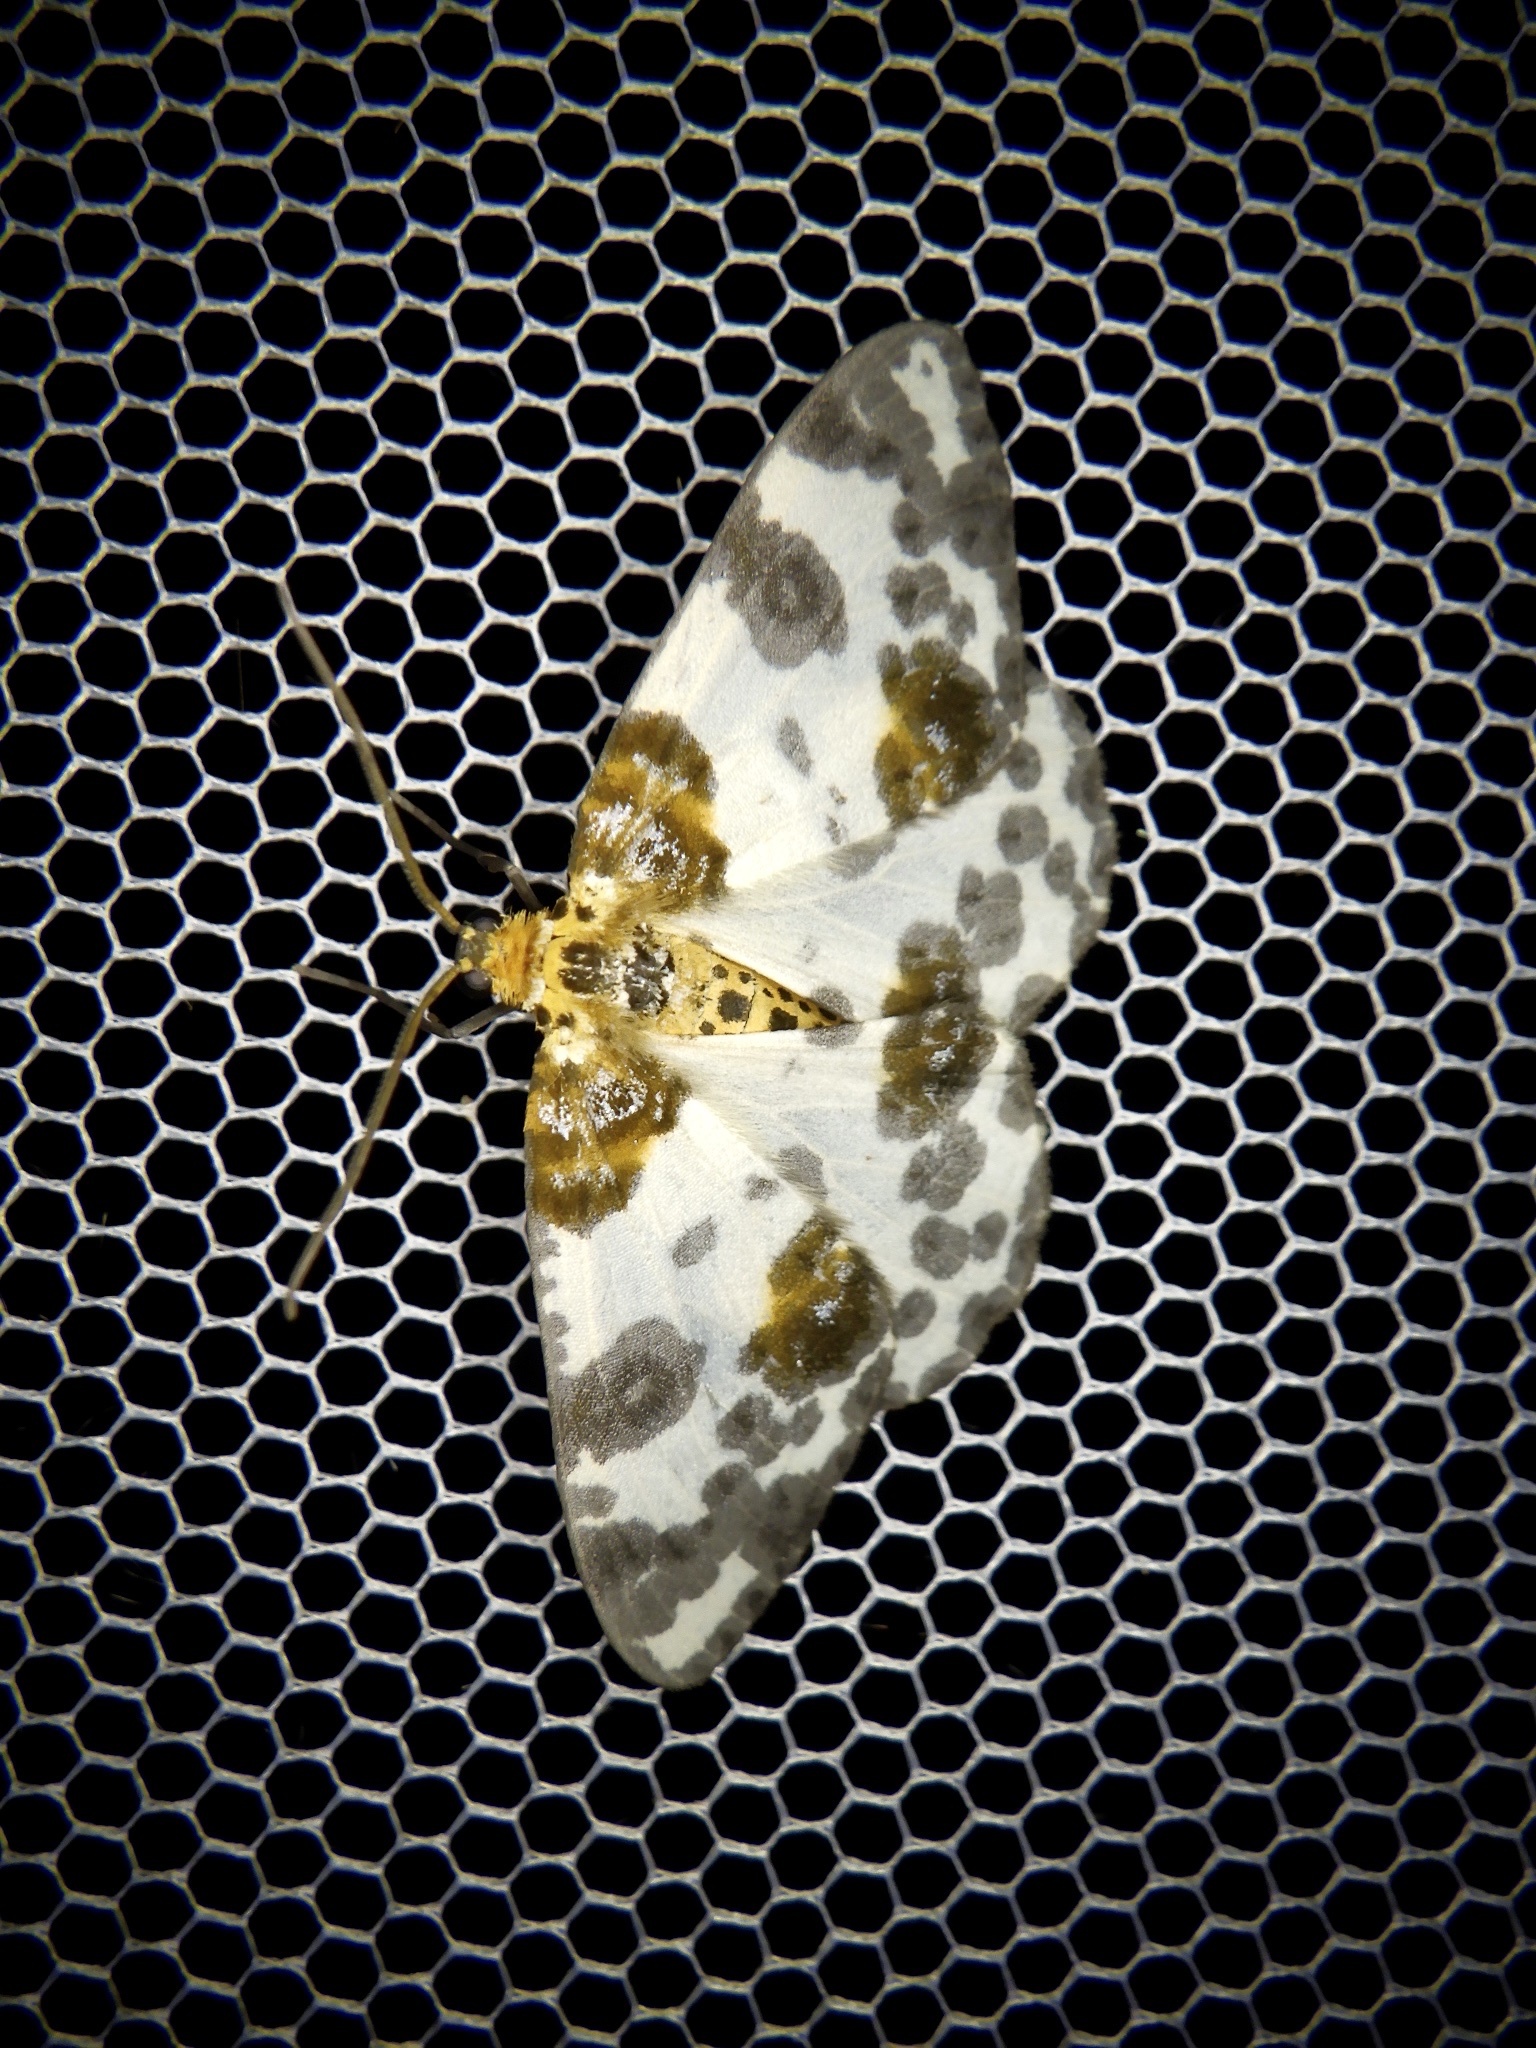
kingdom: Animalia
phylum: Arthropoda
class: Insecta
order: Lepidoptera
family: Geometridae
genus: Abraxas
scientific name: Abraxas niphonibia
